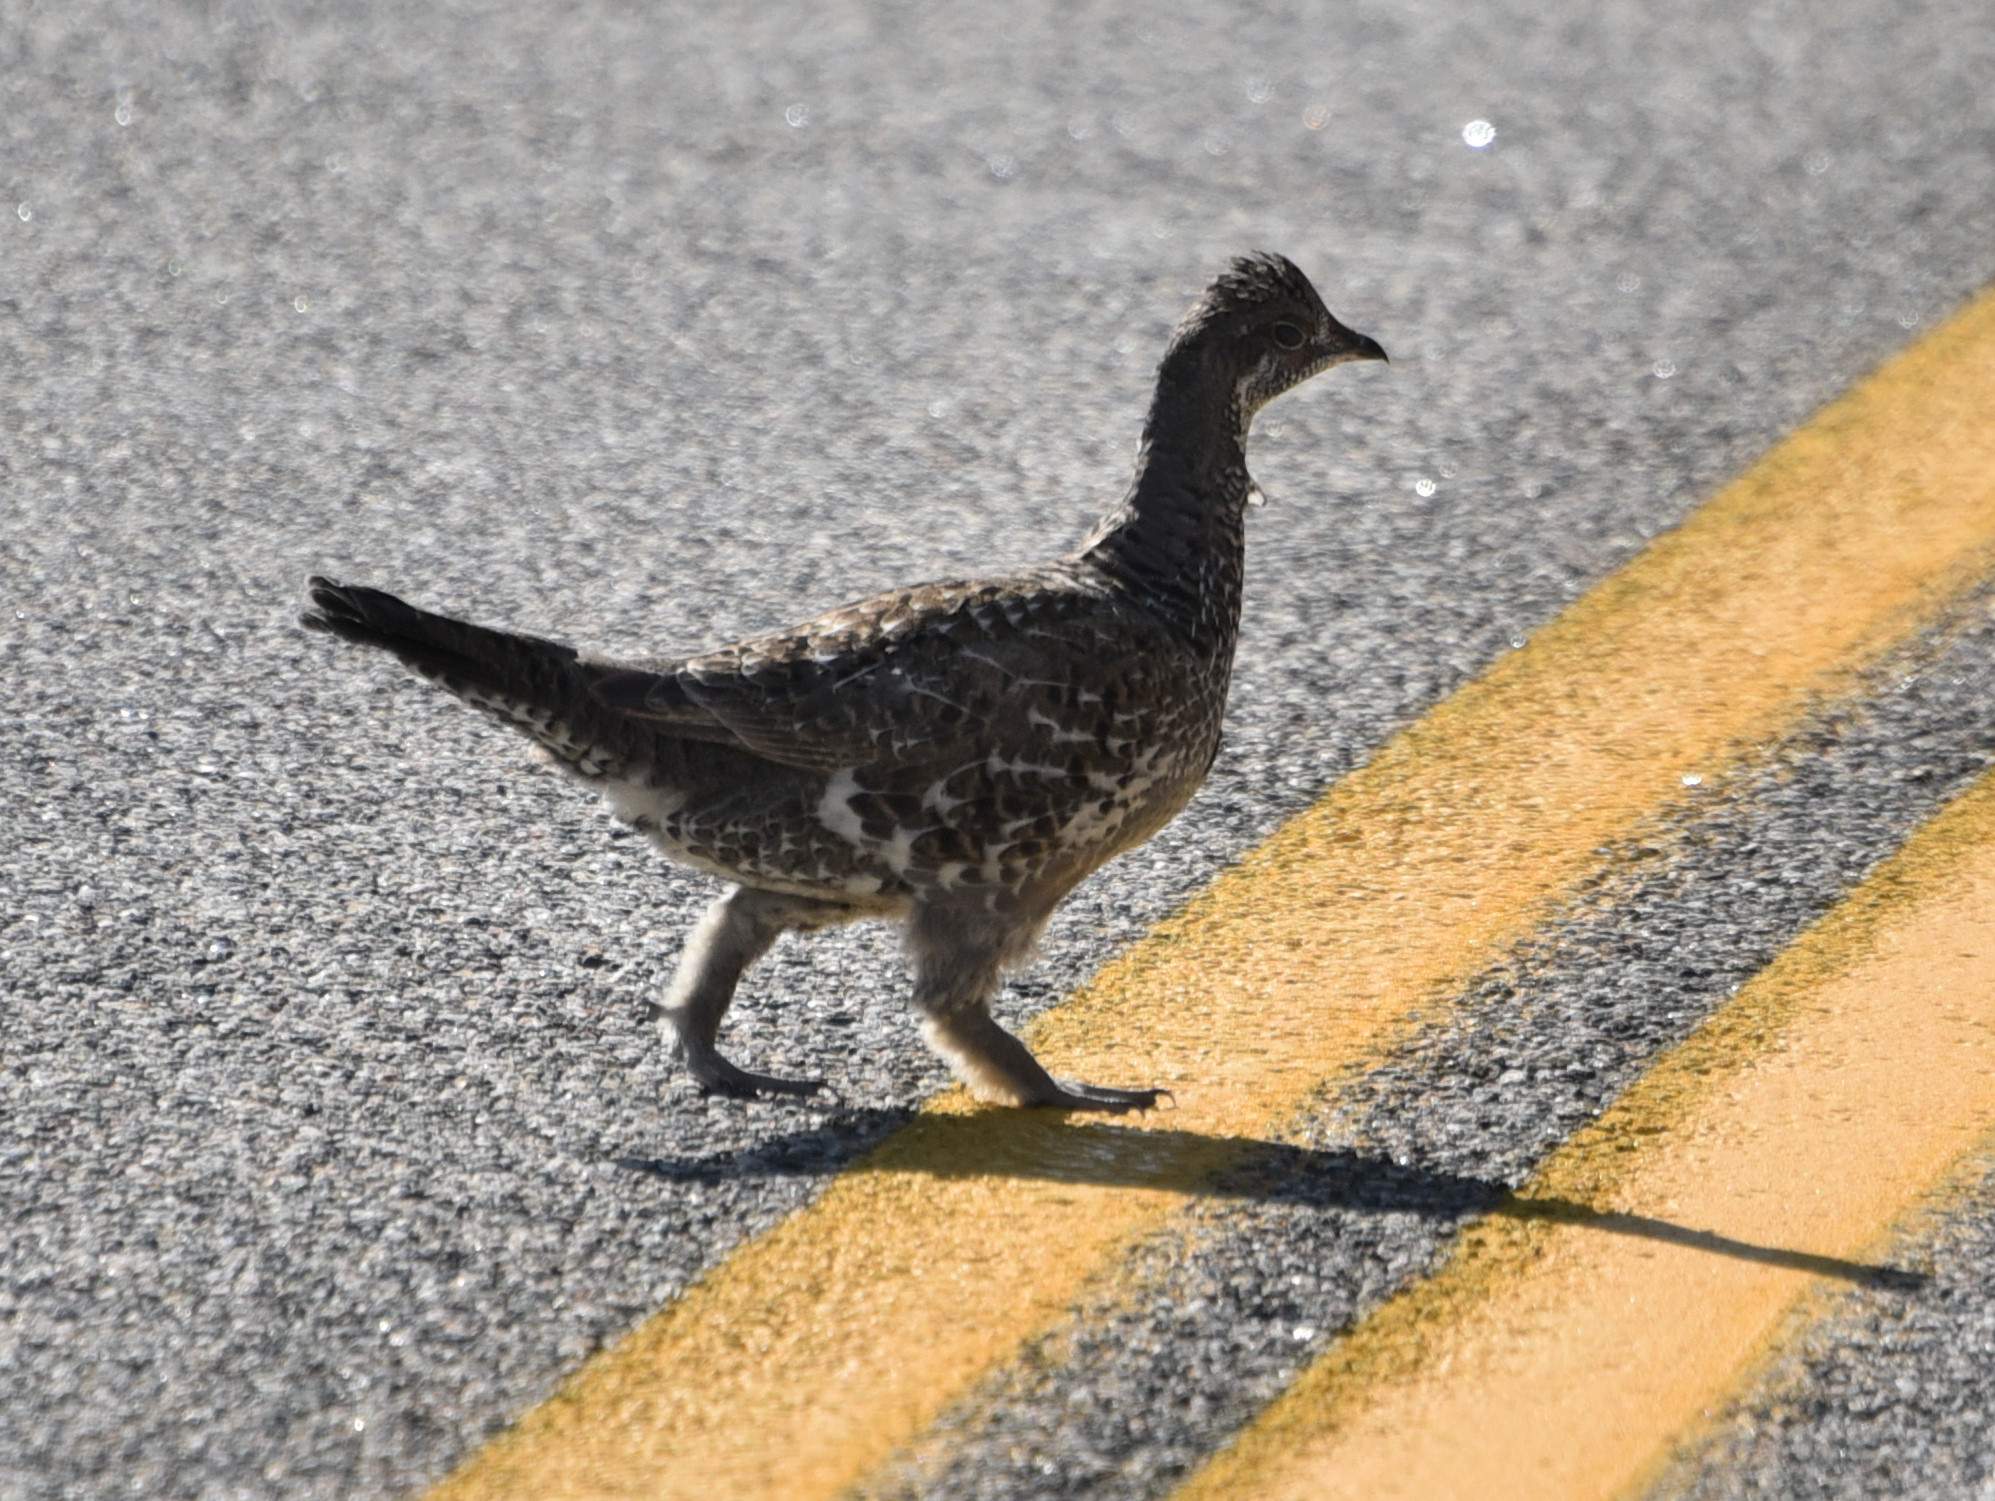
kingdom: Animalia
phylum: Chordata
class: Aves
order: Galliformes
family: Phasianidae
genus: Dendragapus
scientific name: Dendragapus obscurus
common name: Dusky grouse
